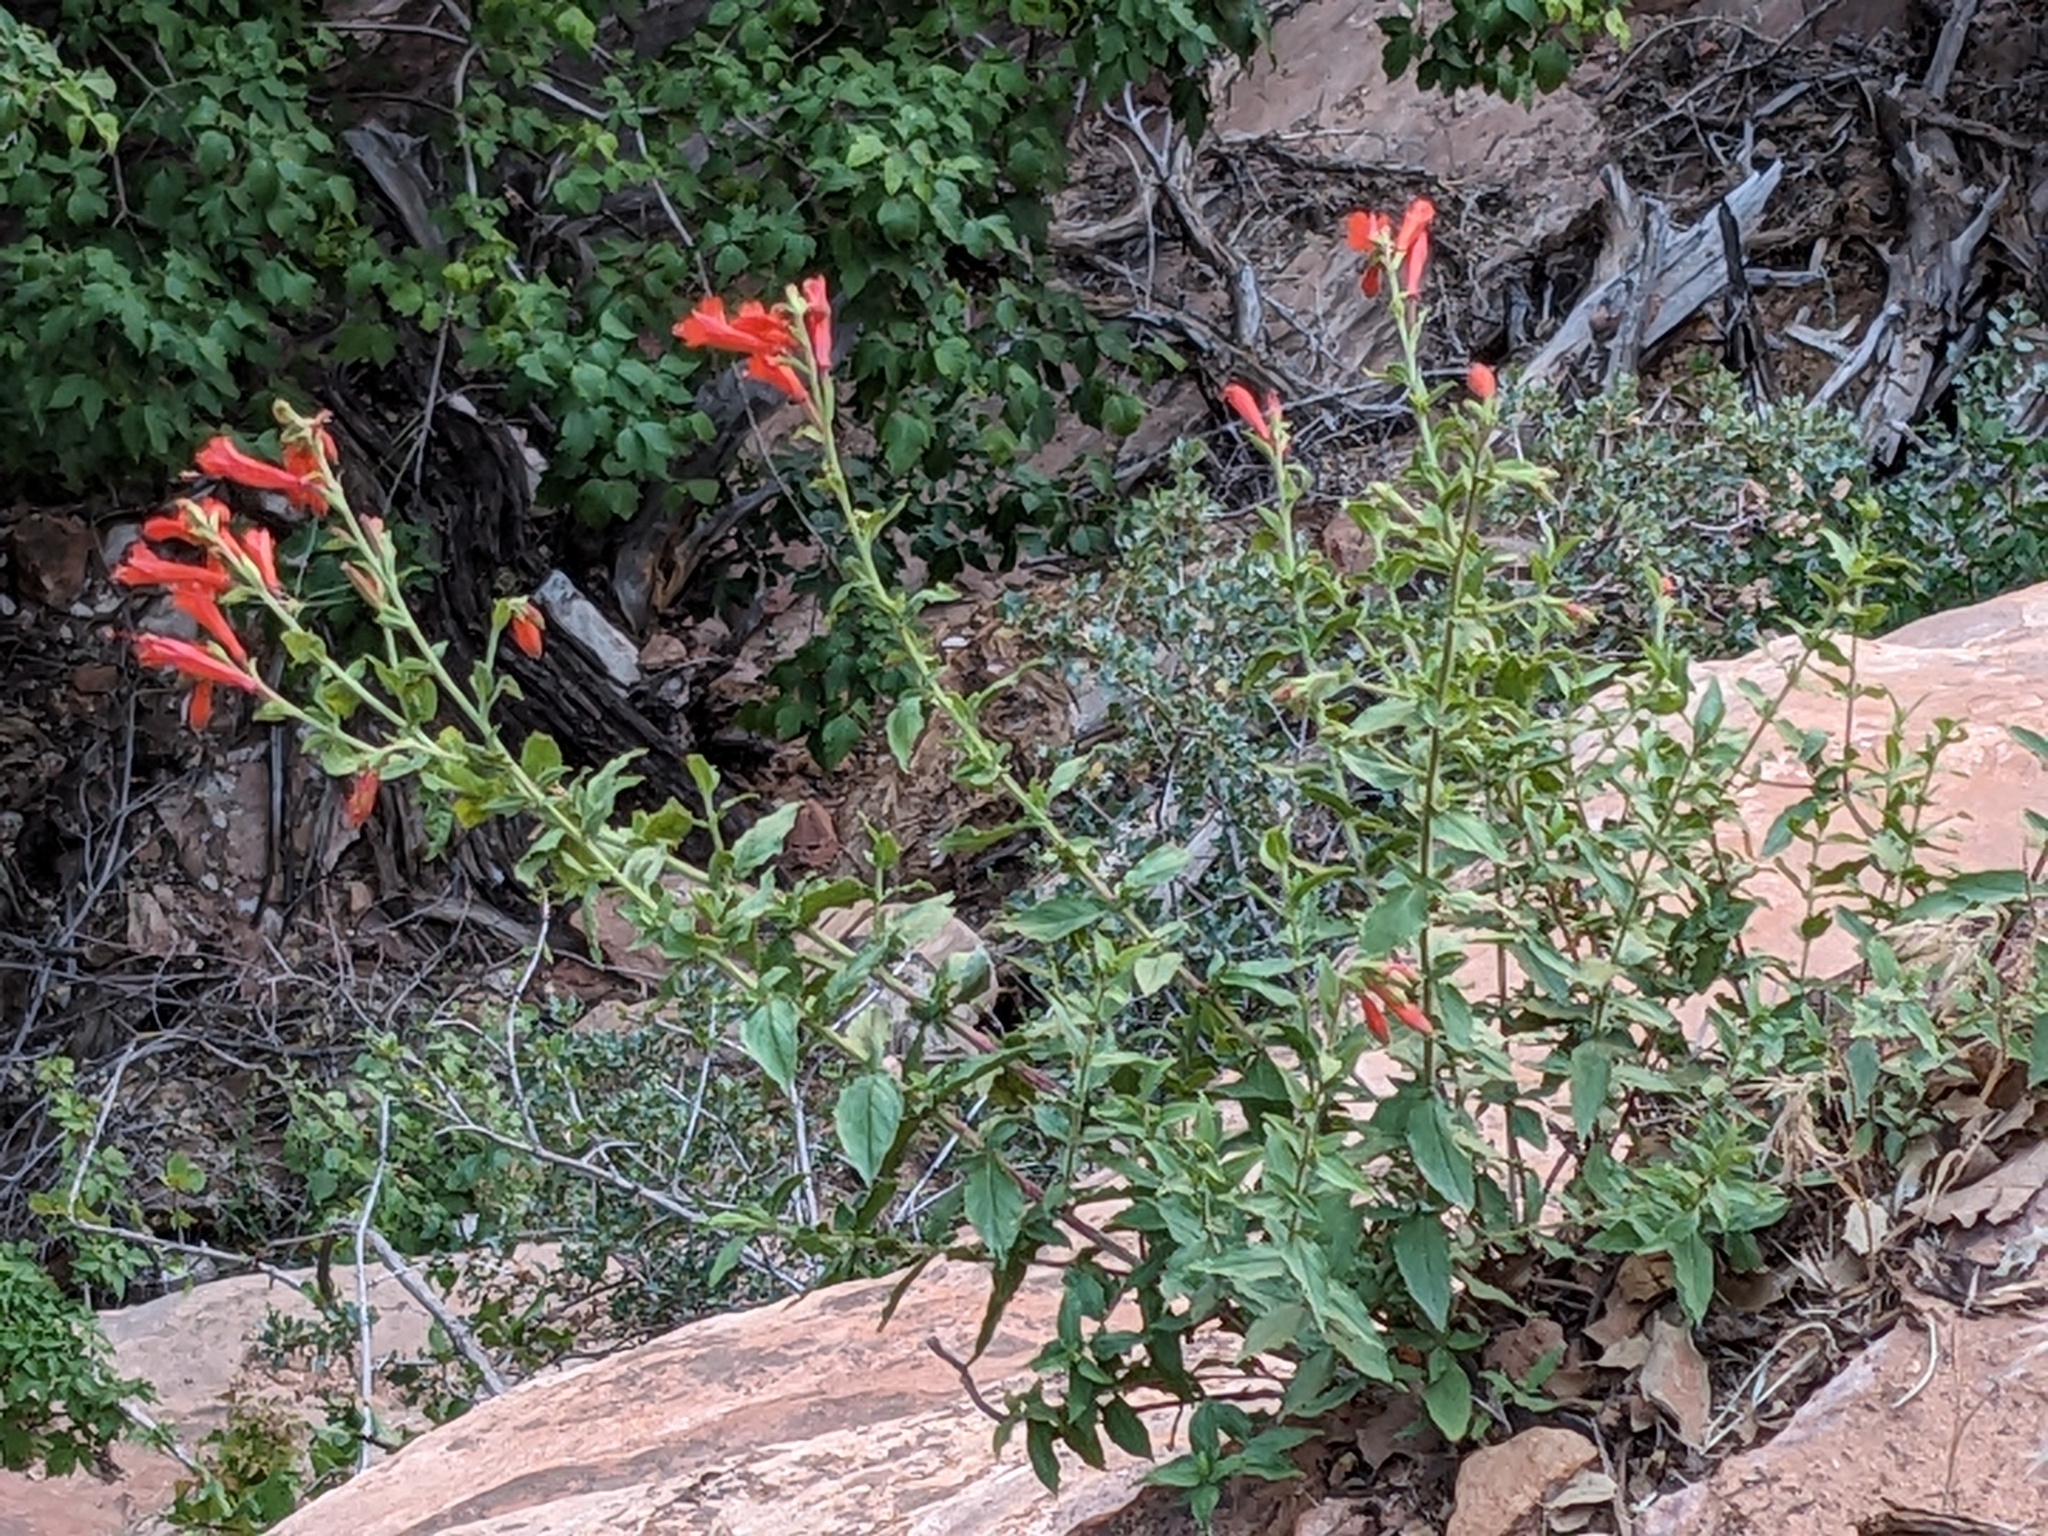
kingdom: Plantae
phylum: Tracheophyta
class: Magnoliopsida
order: Myrtales
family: Onagraceae
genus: Epilobium
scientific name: Epilobium canum
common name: California-fuchsia
